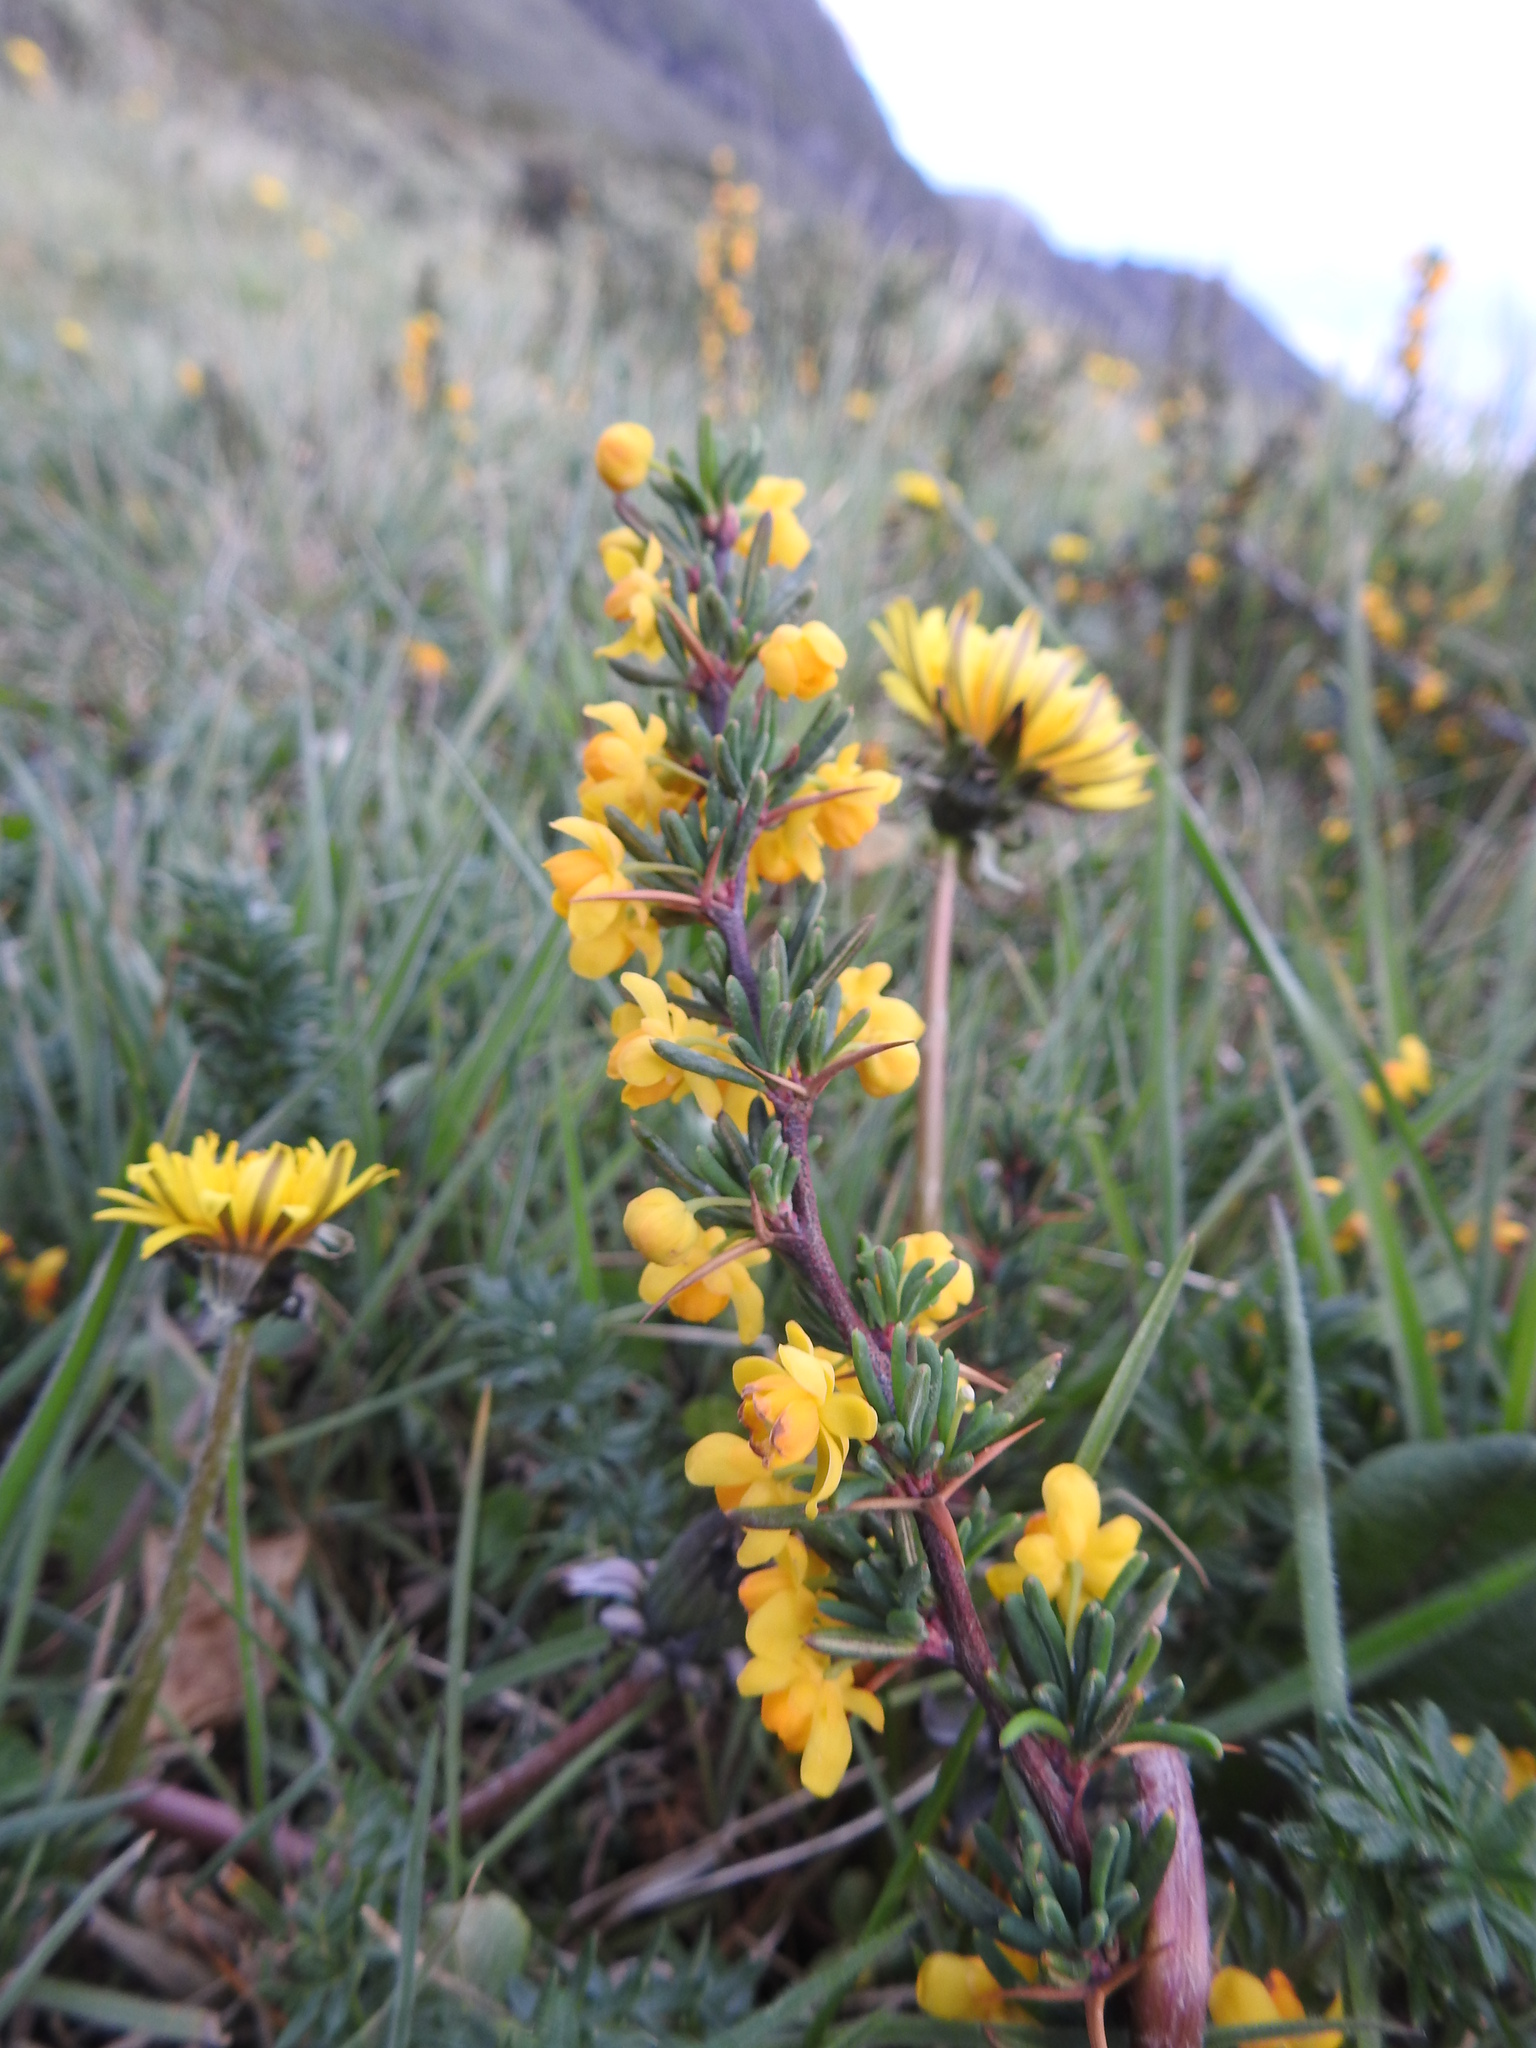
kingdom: Plantae
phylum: Tracheophyta
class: Magnoliopsida
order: Ranunculales
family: Berberidaceae
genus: Berberis
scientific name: Berberis empetrifolia
